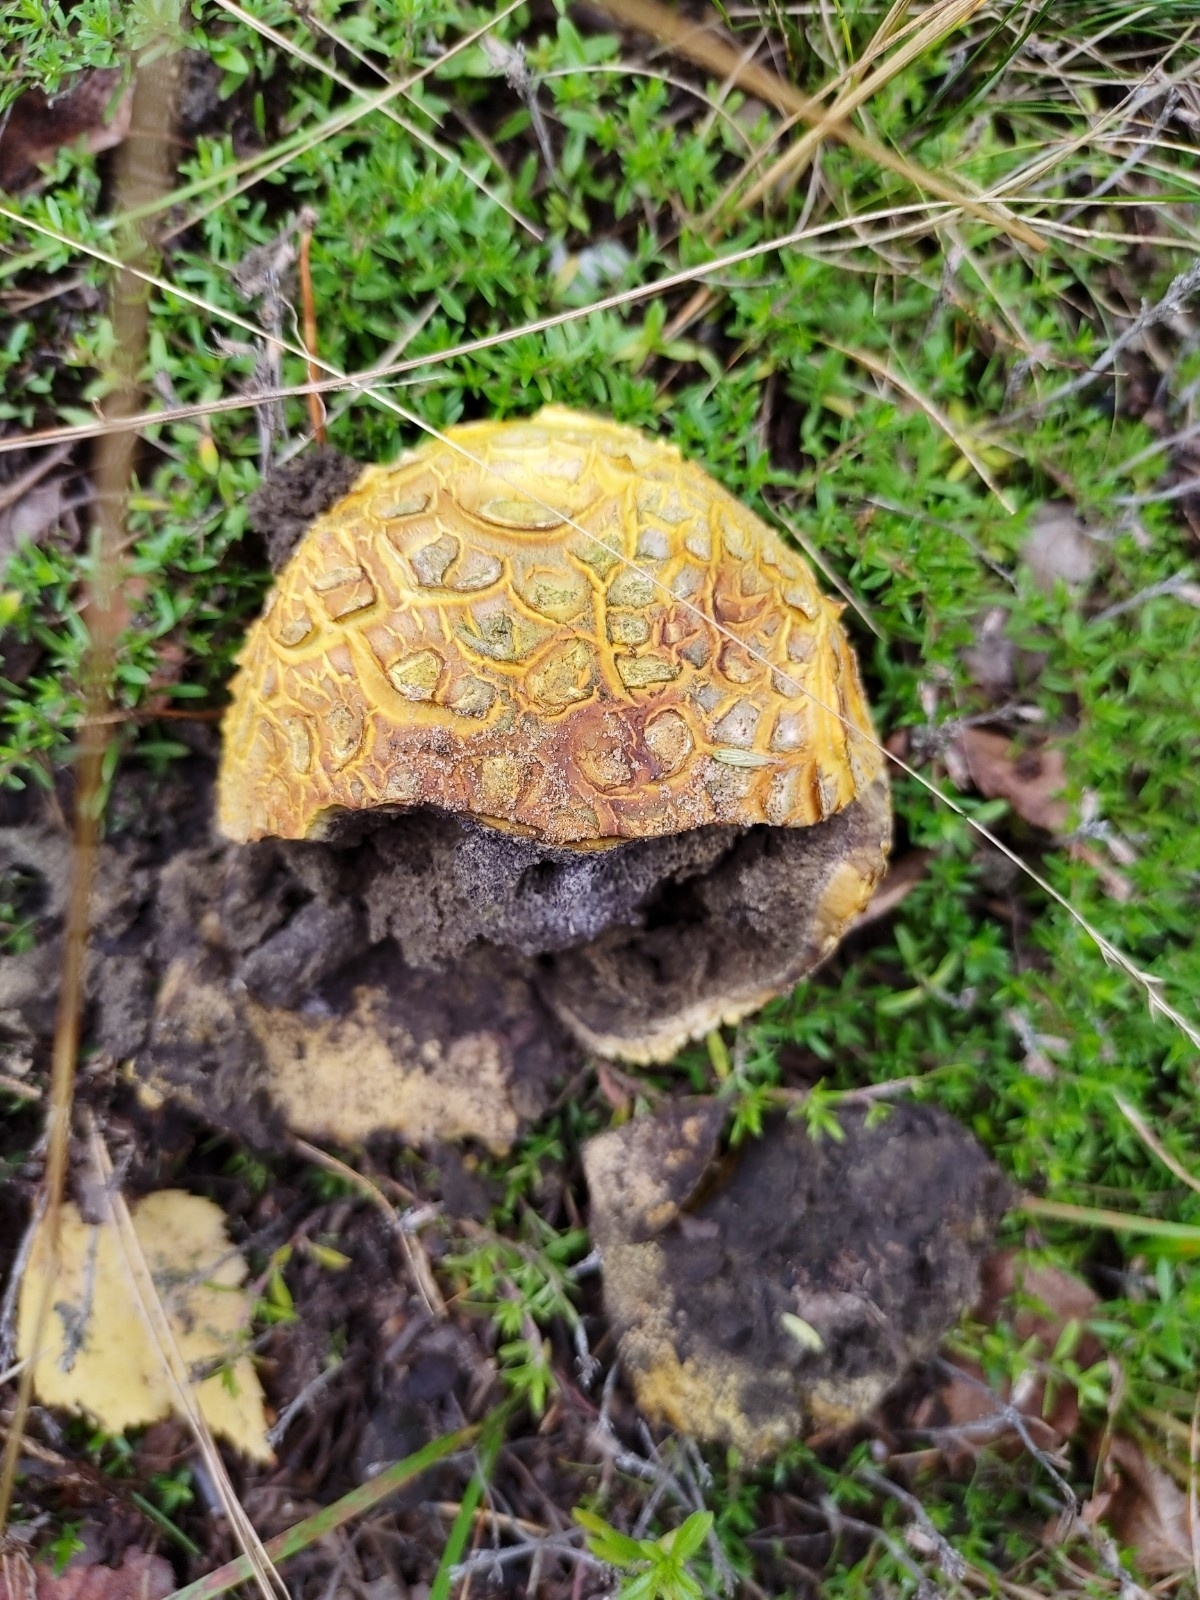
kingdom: Fungi
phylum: Basidiomycota
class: Agaricomycetes
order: Boletales
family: Sclerodermataceae
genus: Scleroderma
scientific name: Scleroderma citrinum
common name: Common earthball
